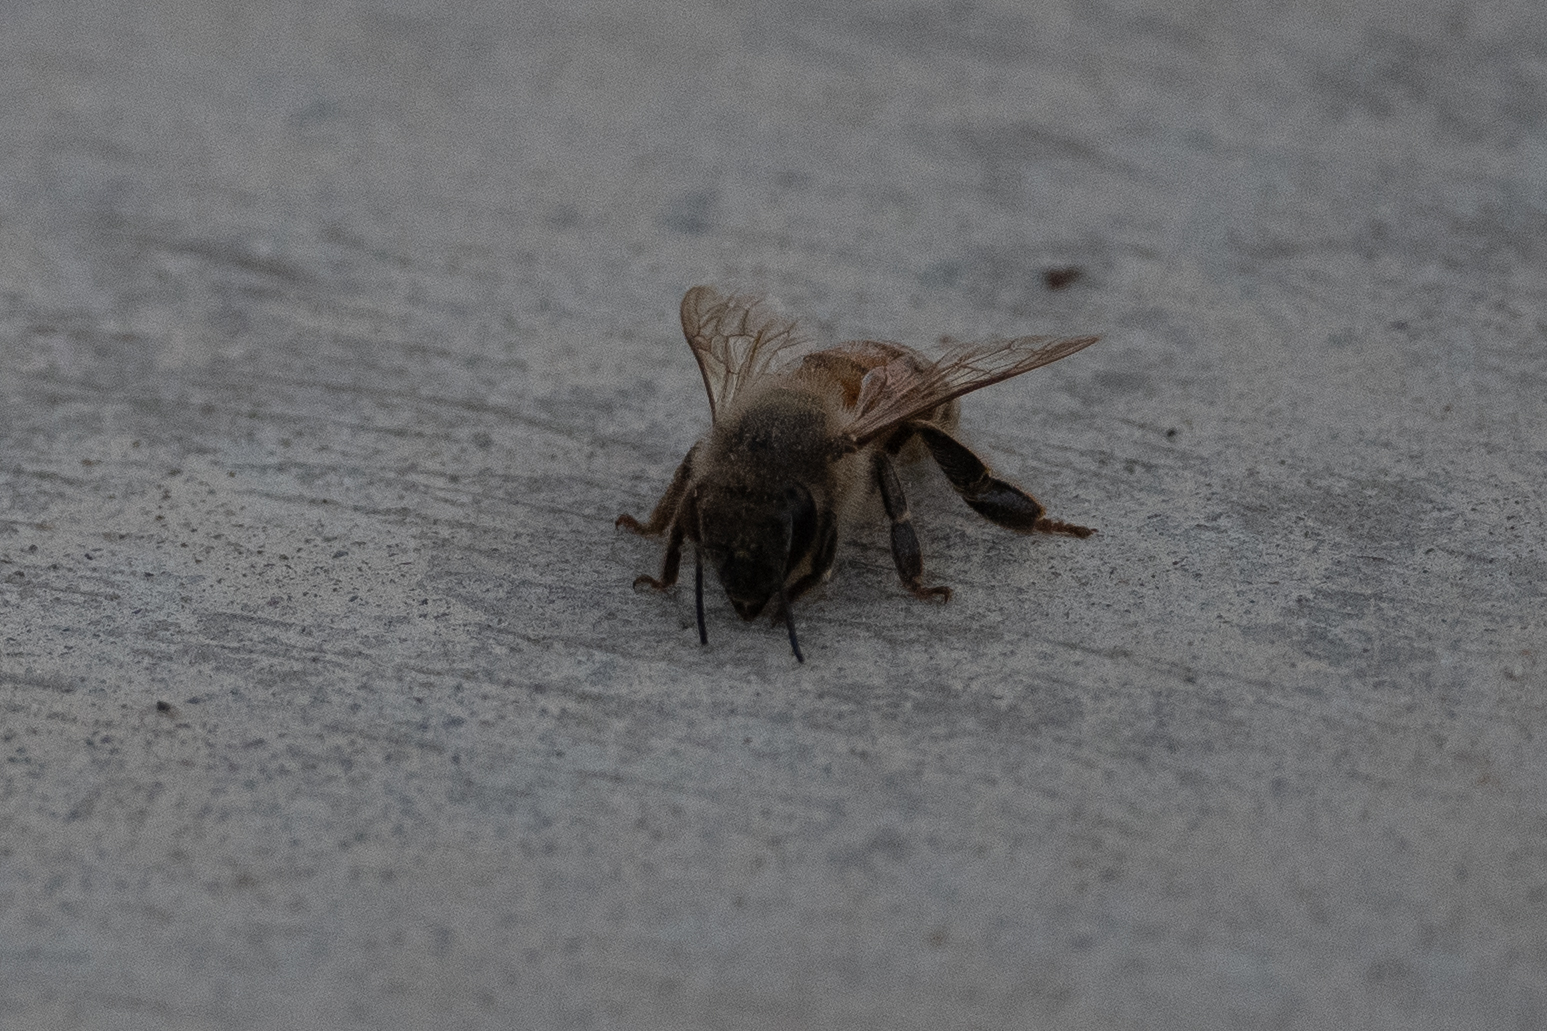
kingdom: Animalia
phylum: Arthropoda
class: Insecta
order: Hymenoptera
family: Apidae
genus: Apis
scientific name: Apis mellifera
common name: Honey bee
